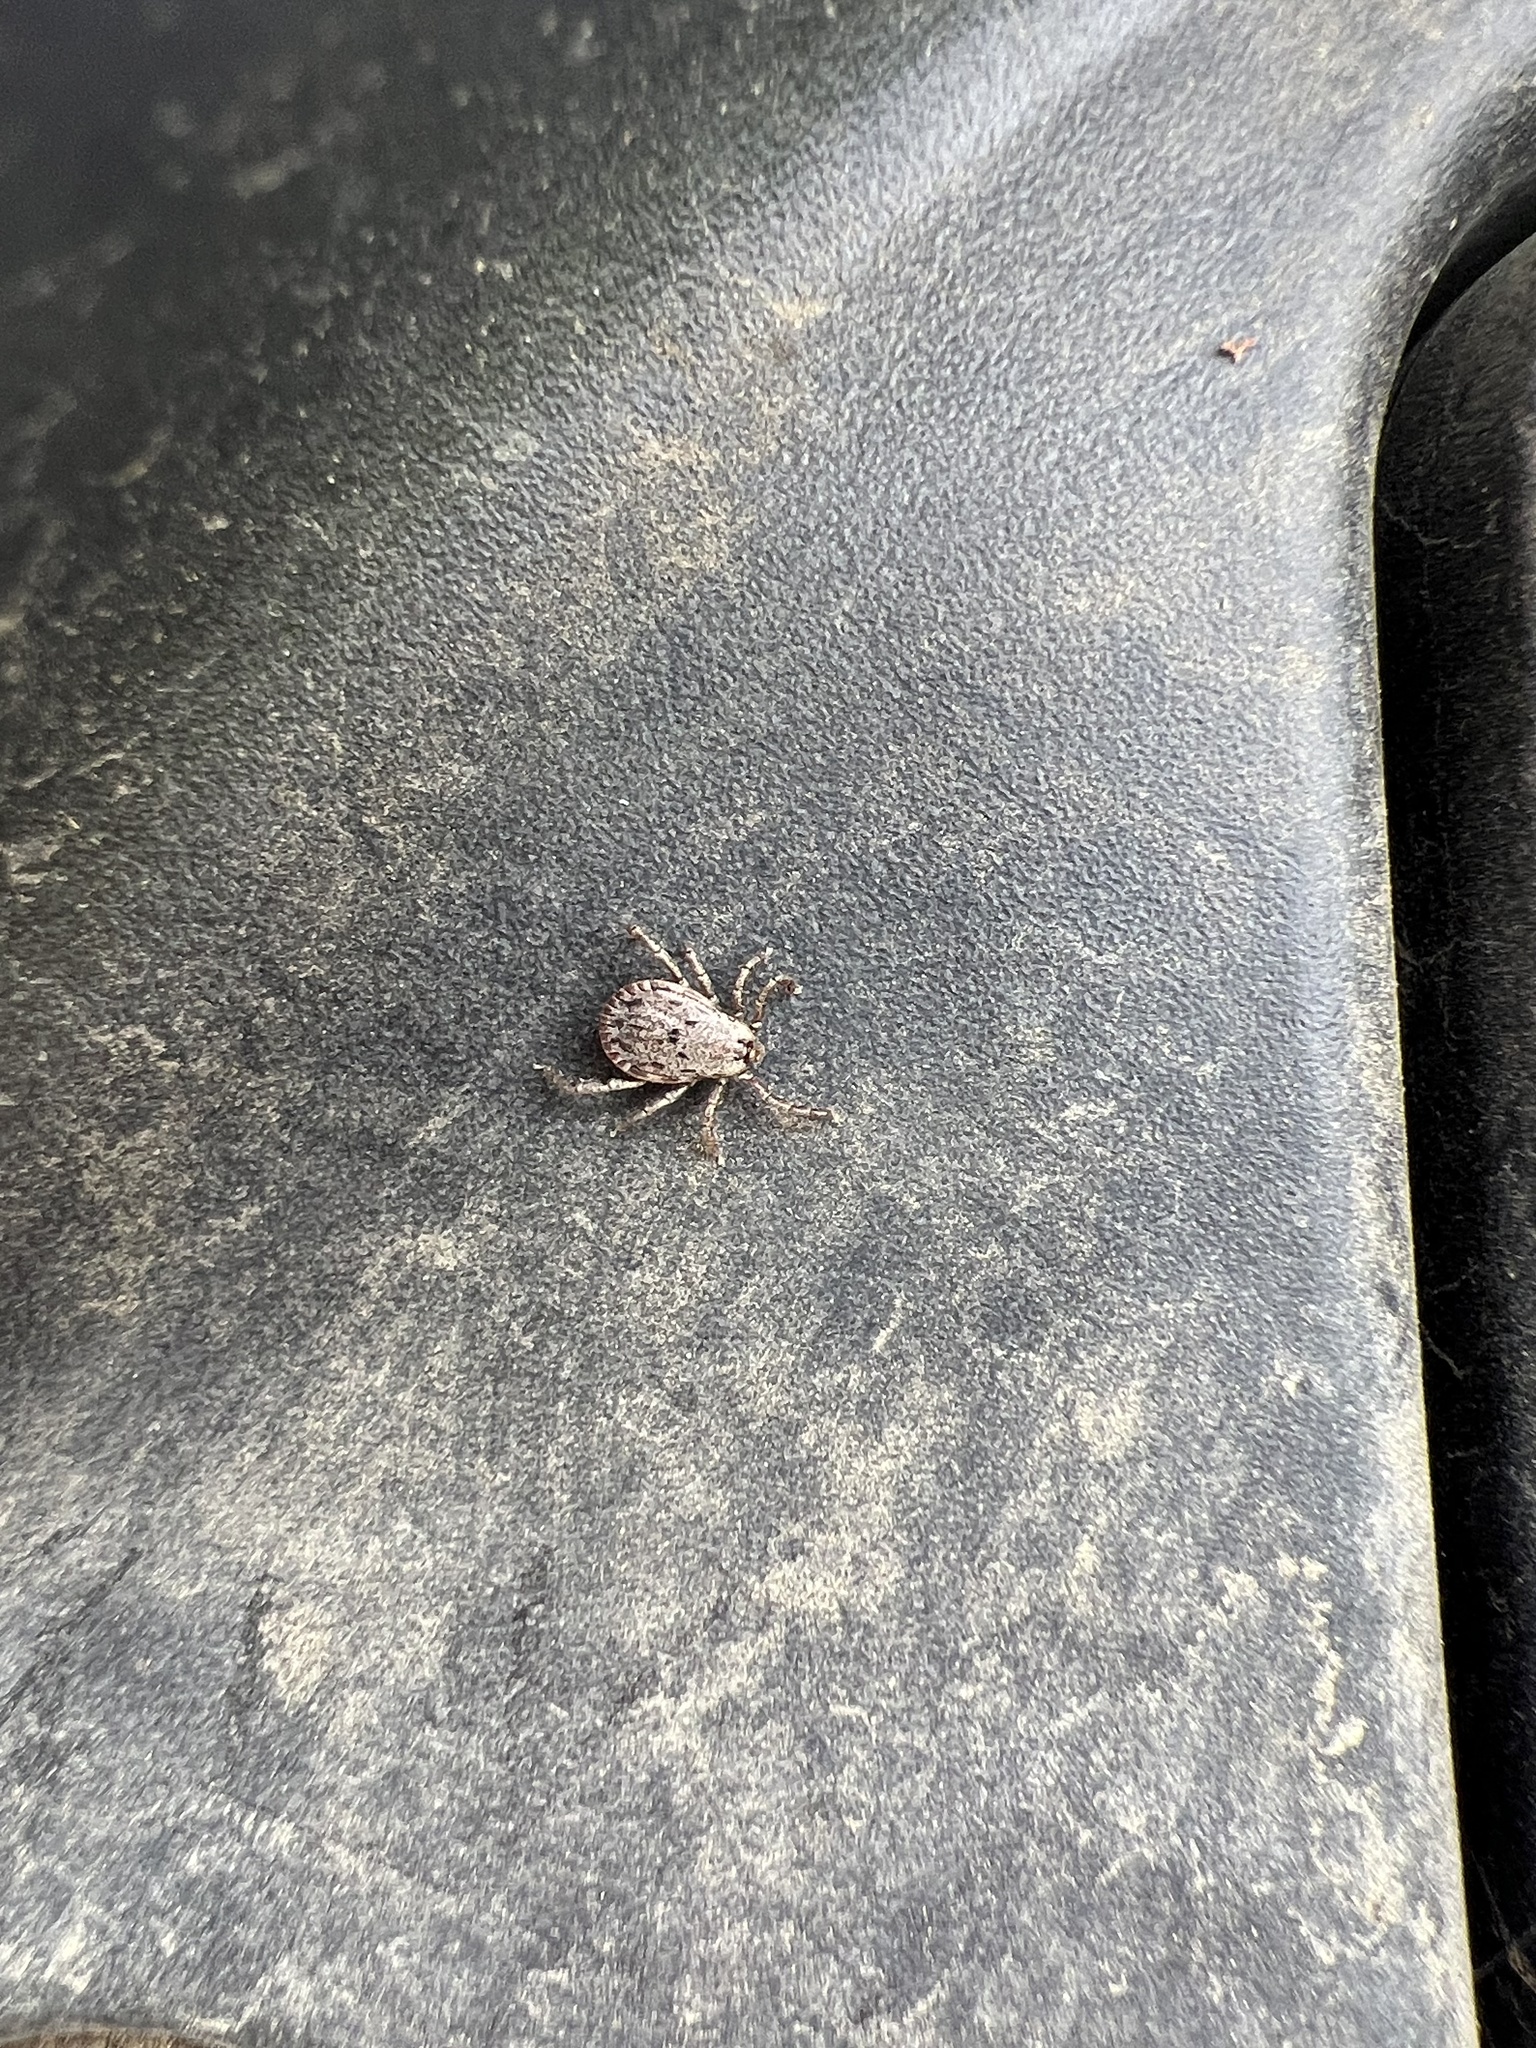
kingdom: Animalia
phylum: Arthropoda
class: Arachnida
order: Ixodida
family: Ixodidae
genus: Dermacentor
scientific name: Dermacentor occidentalis
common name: Net tick
